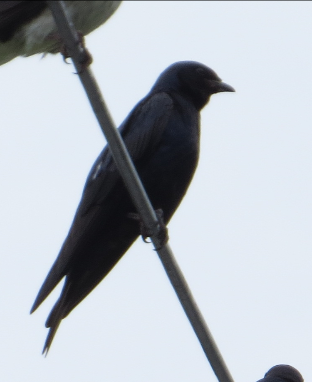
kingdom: Animalia
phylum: Chordata
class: Aves
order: Passeriformes
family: Hirundinidae
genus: Progne
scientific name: Progne elegans
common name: Southern martin
